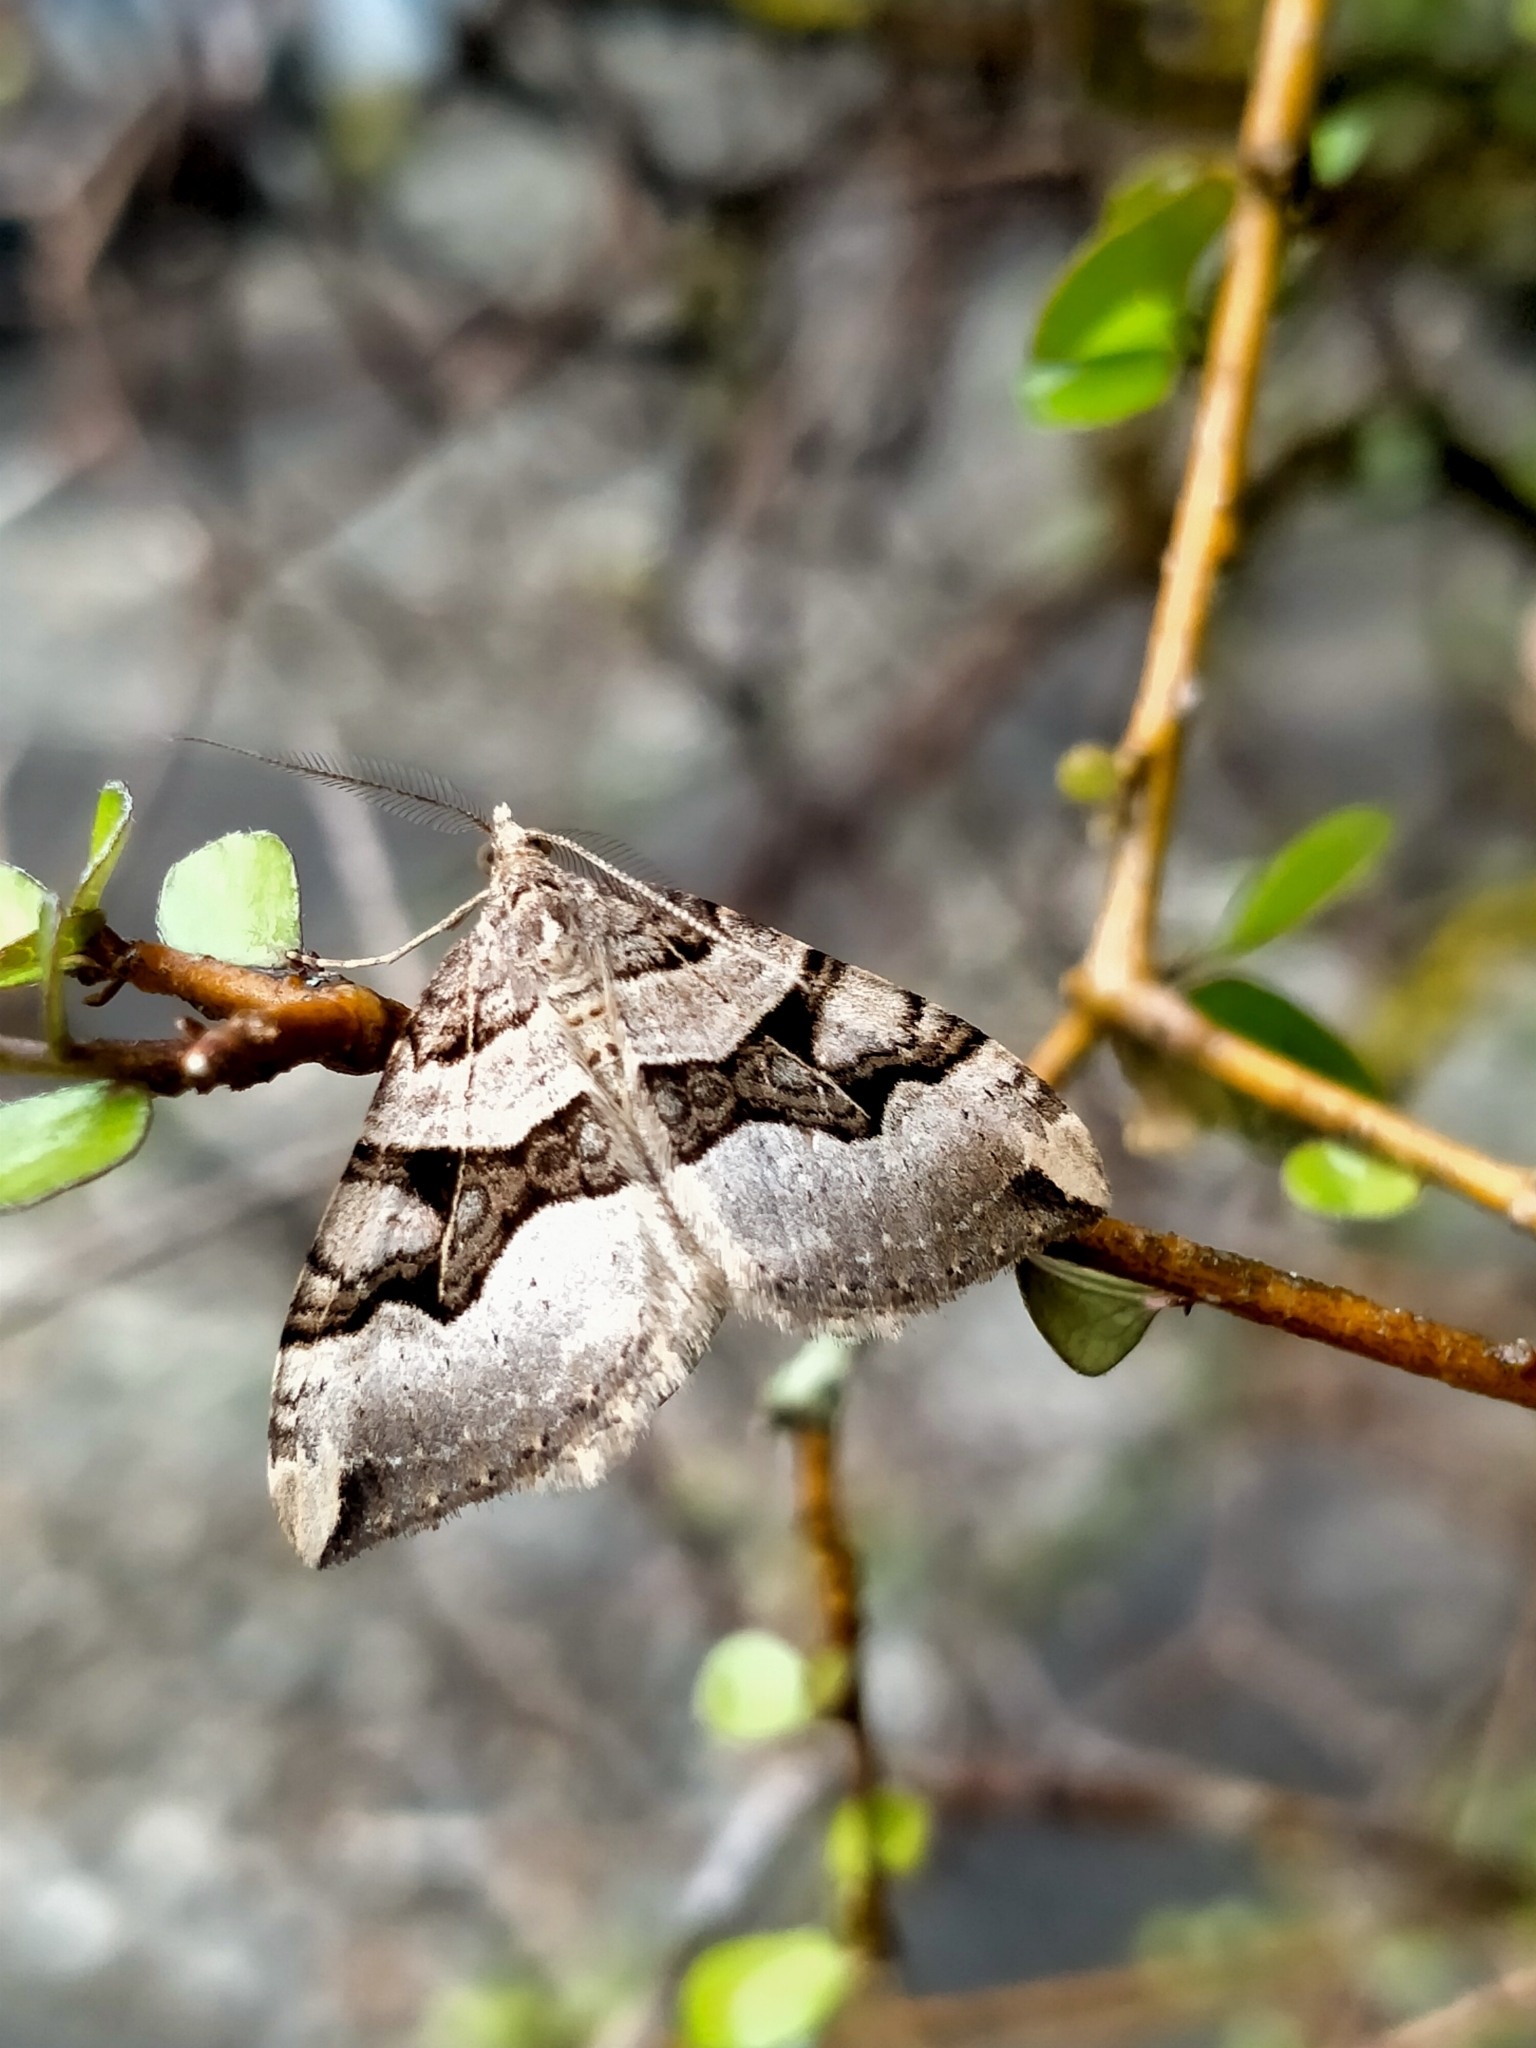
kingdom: Animalia
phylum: Arthropoda
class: Insecta
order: Lepidoptera
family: Geometridae
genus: Xanthorhoe
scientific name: Xanthorhoe semifissata
